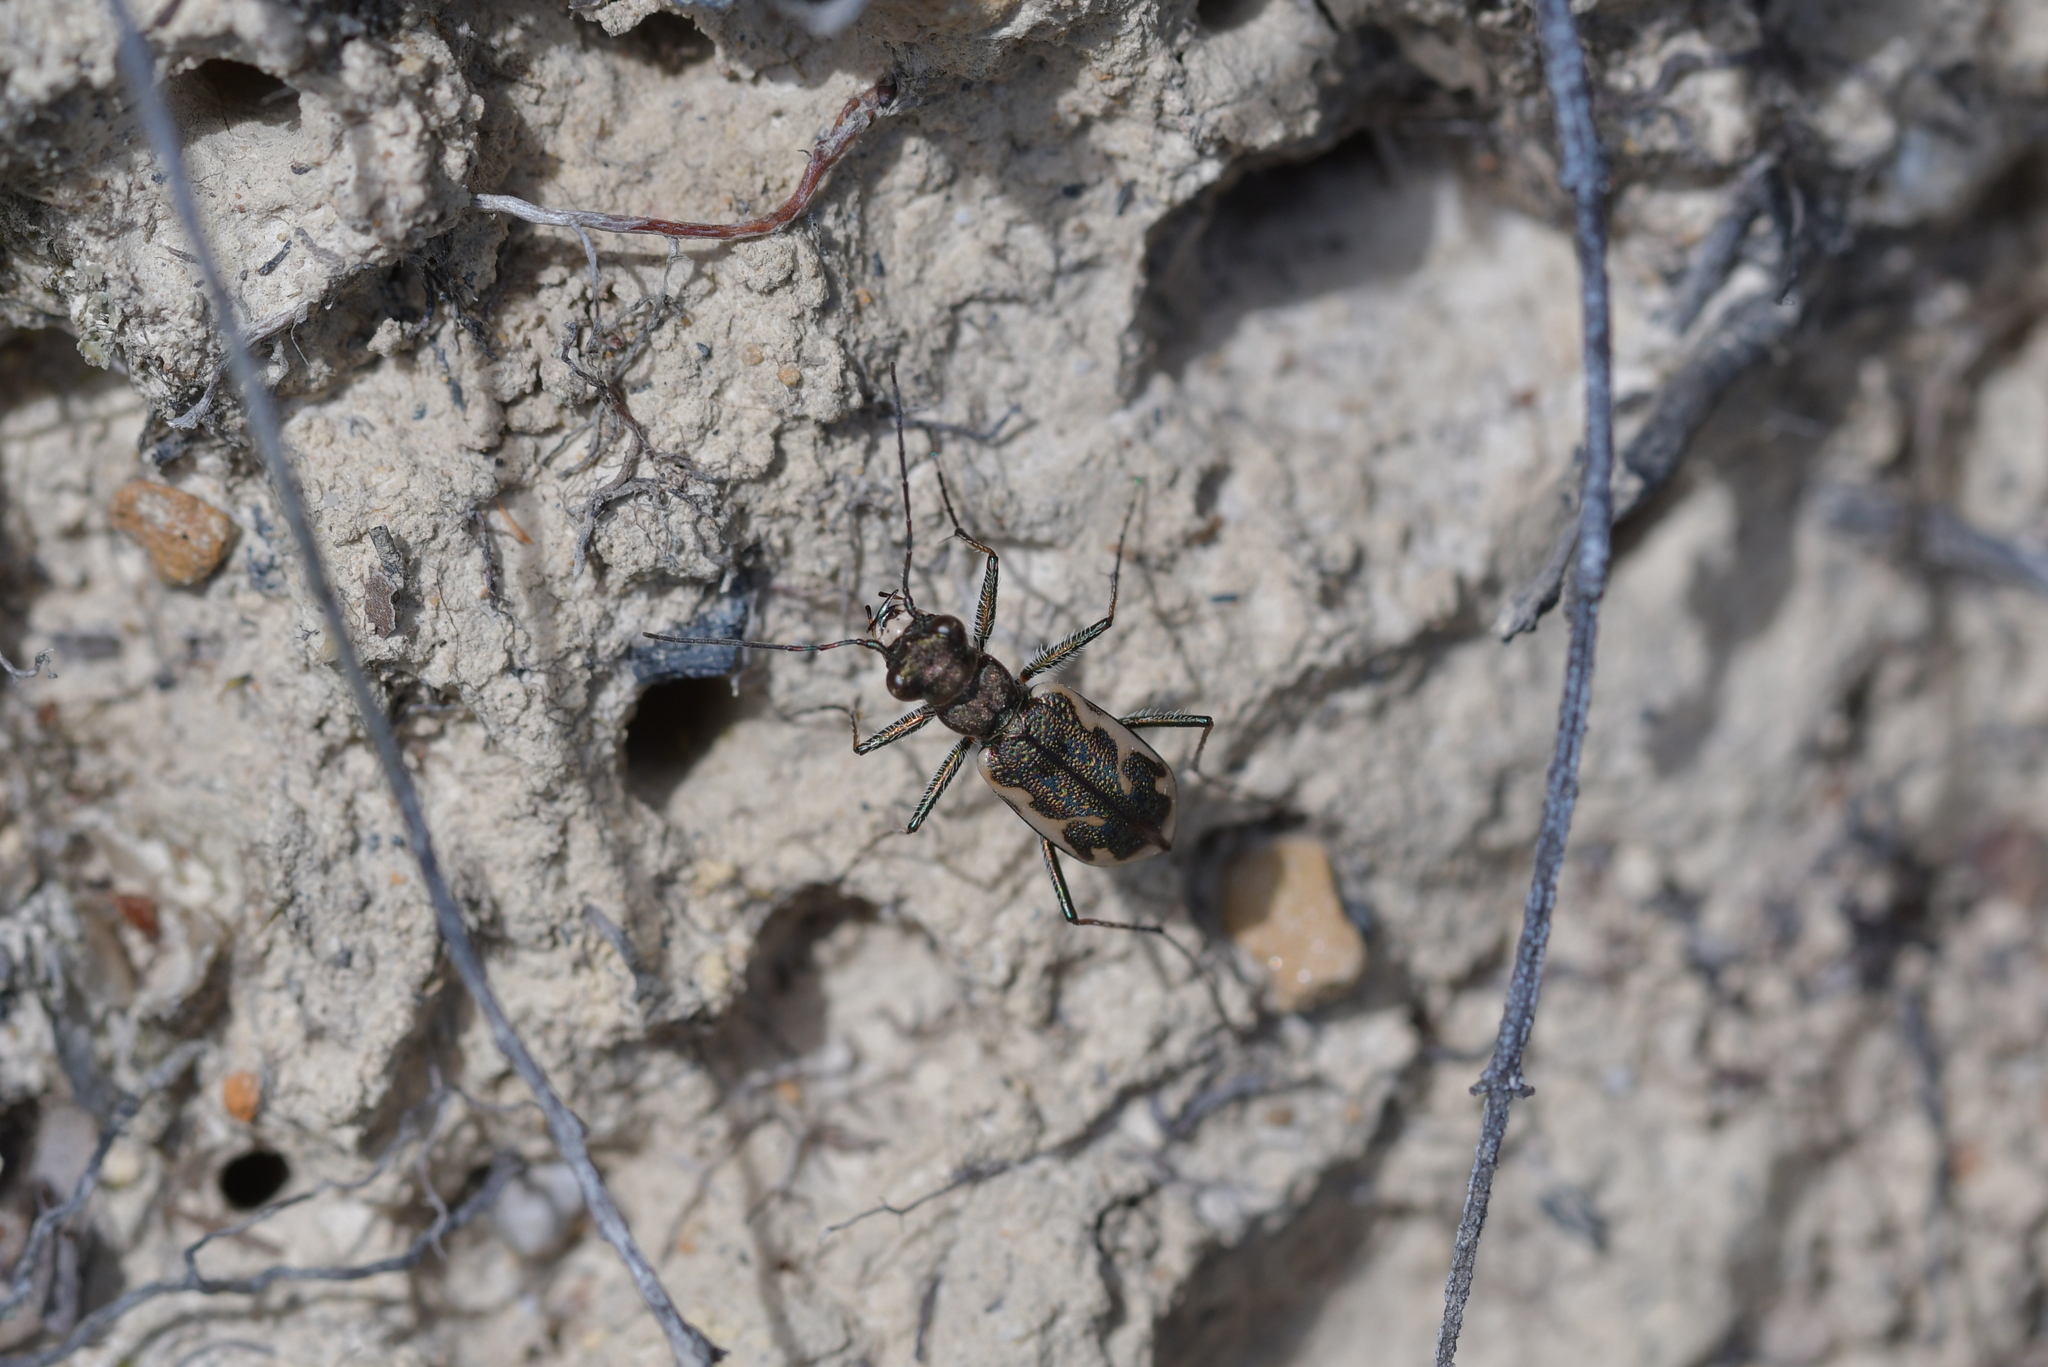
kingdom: Animalia
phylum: Arthropoda
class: Insecta
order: Coleoptera
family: Carabidae
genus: Neocicindela
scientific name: Neocicindela tuberculata
